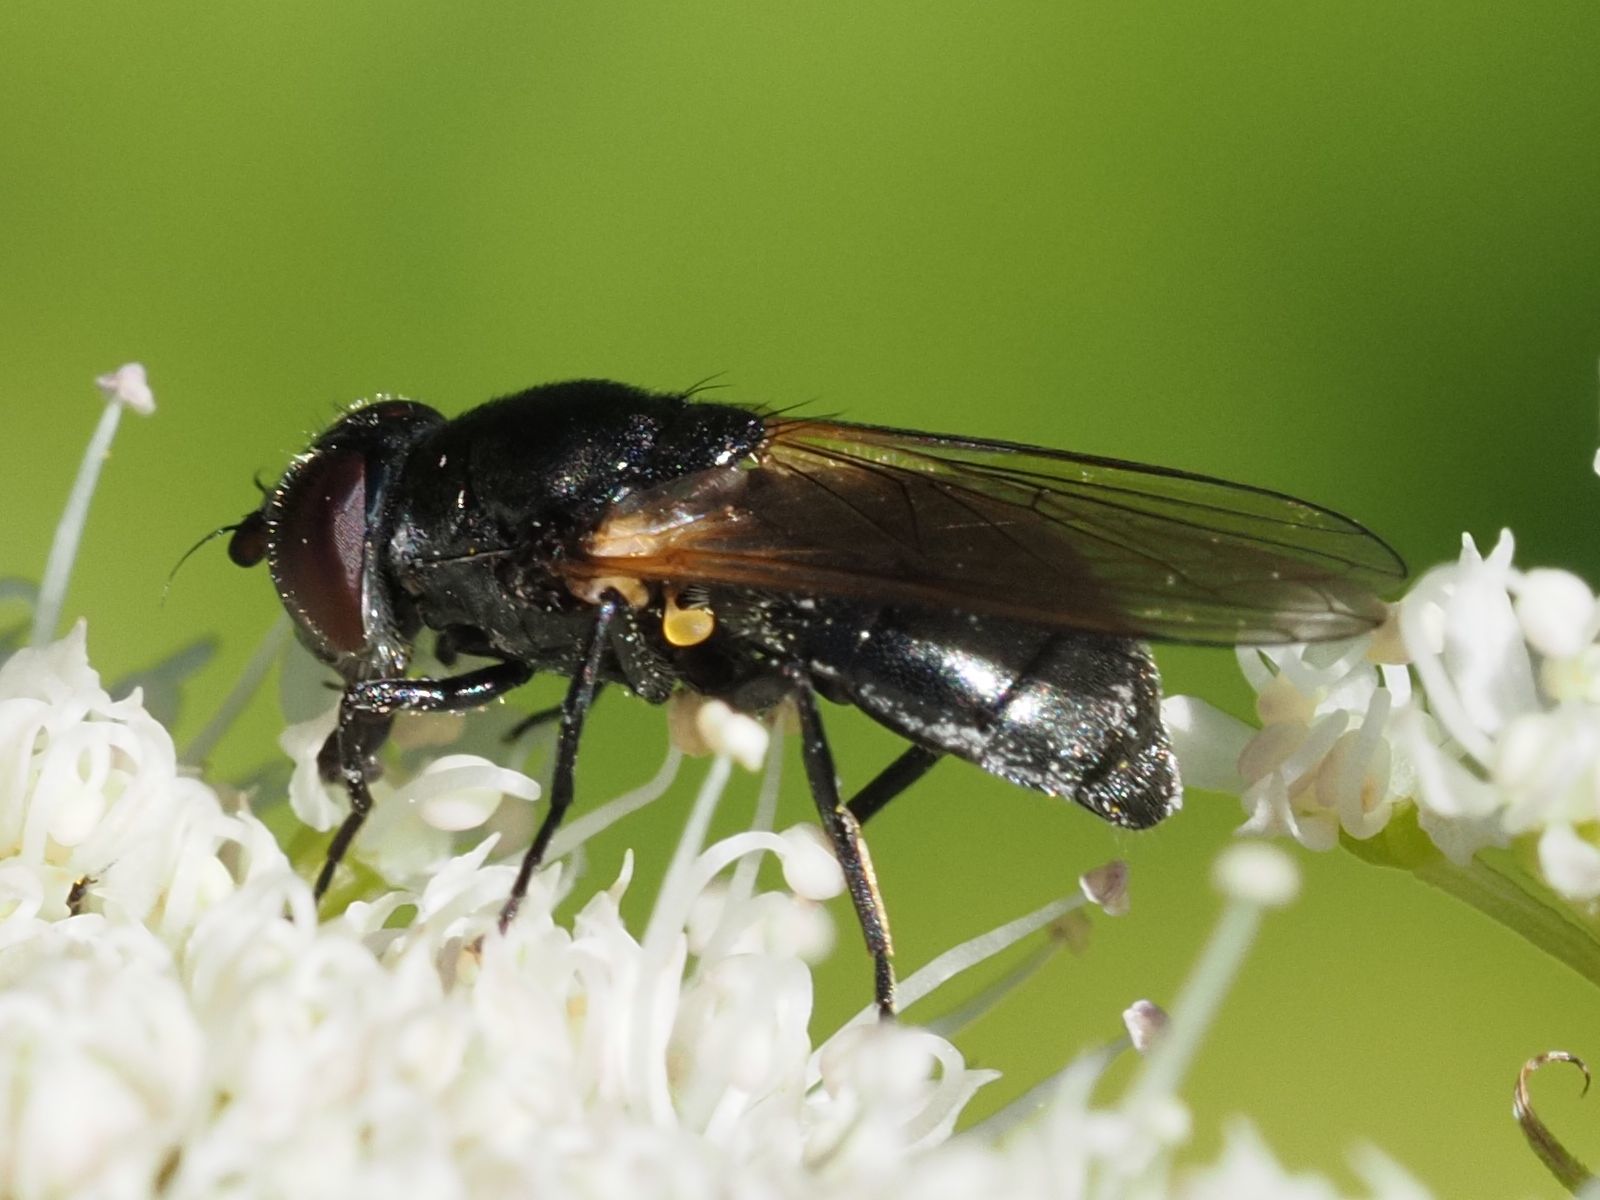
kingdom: Animalia
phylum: Arthropoda
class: Insecta
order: Diptera
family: Syrphidae
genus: Cheilosia
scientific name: Cheilosia impressa
